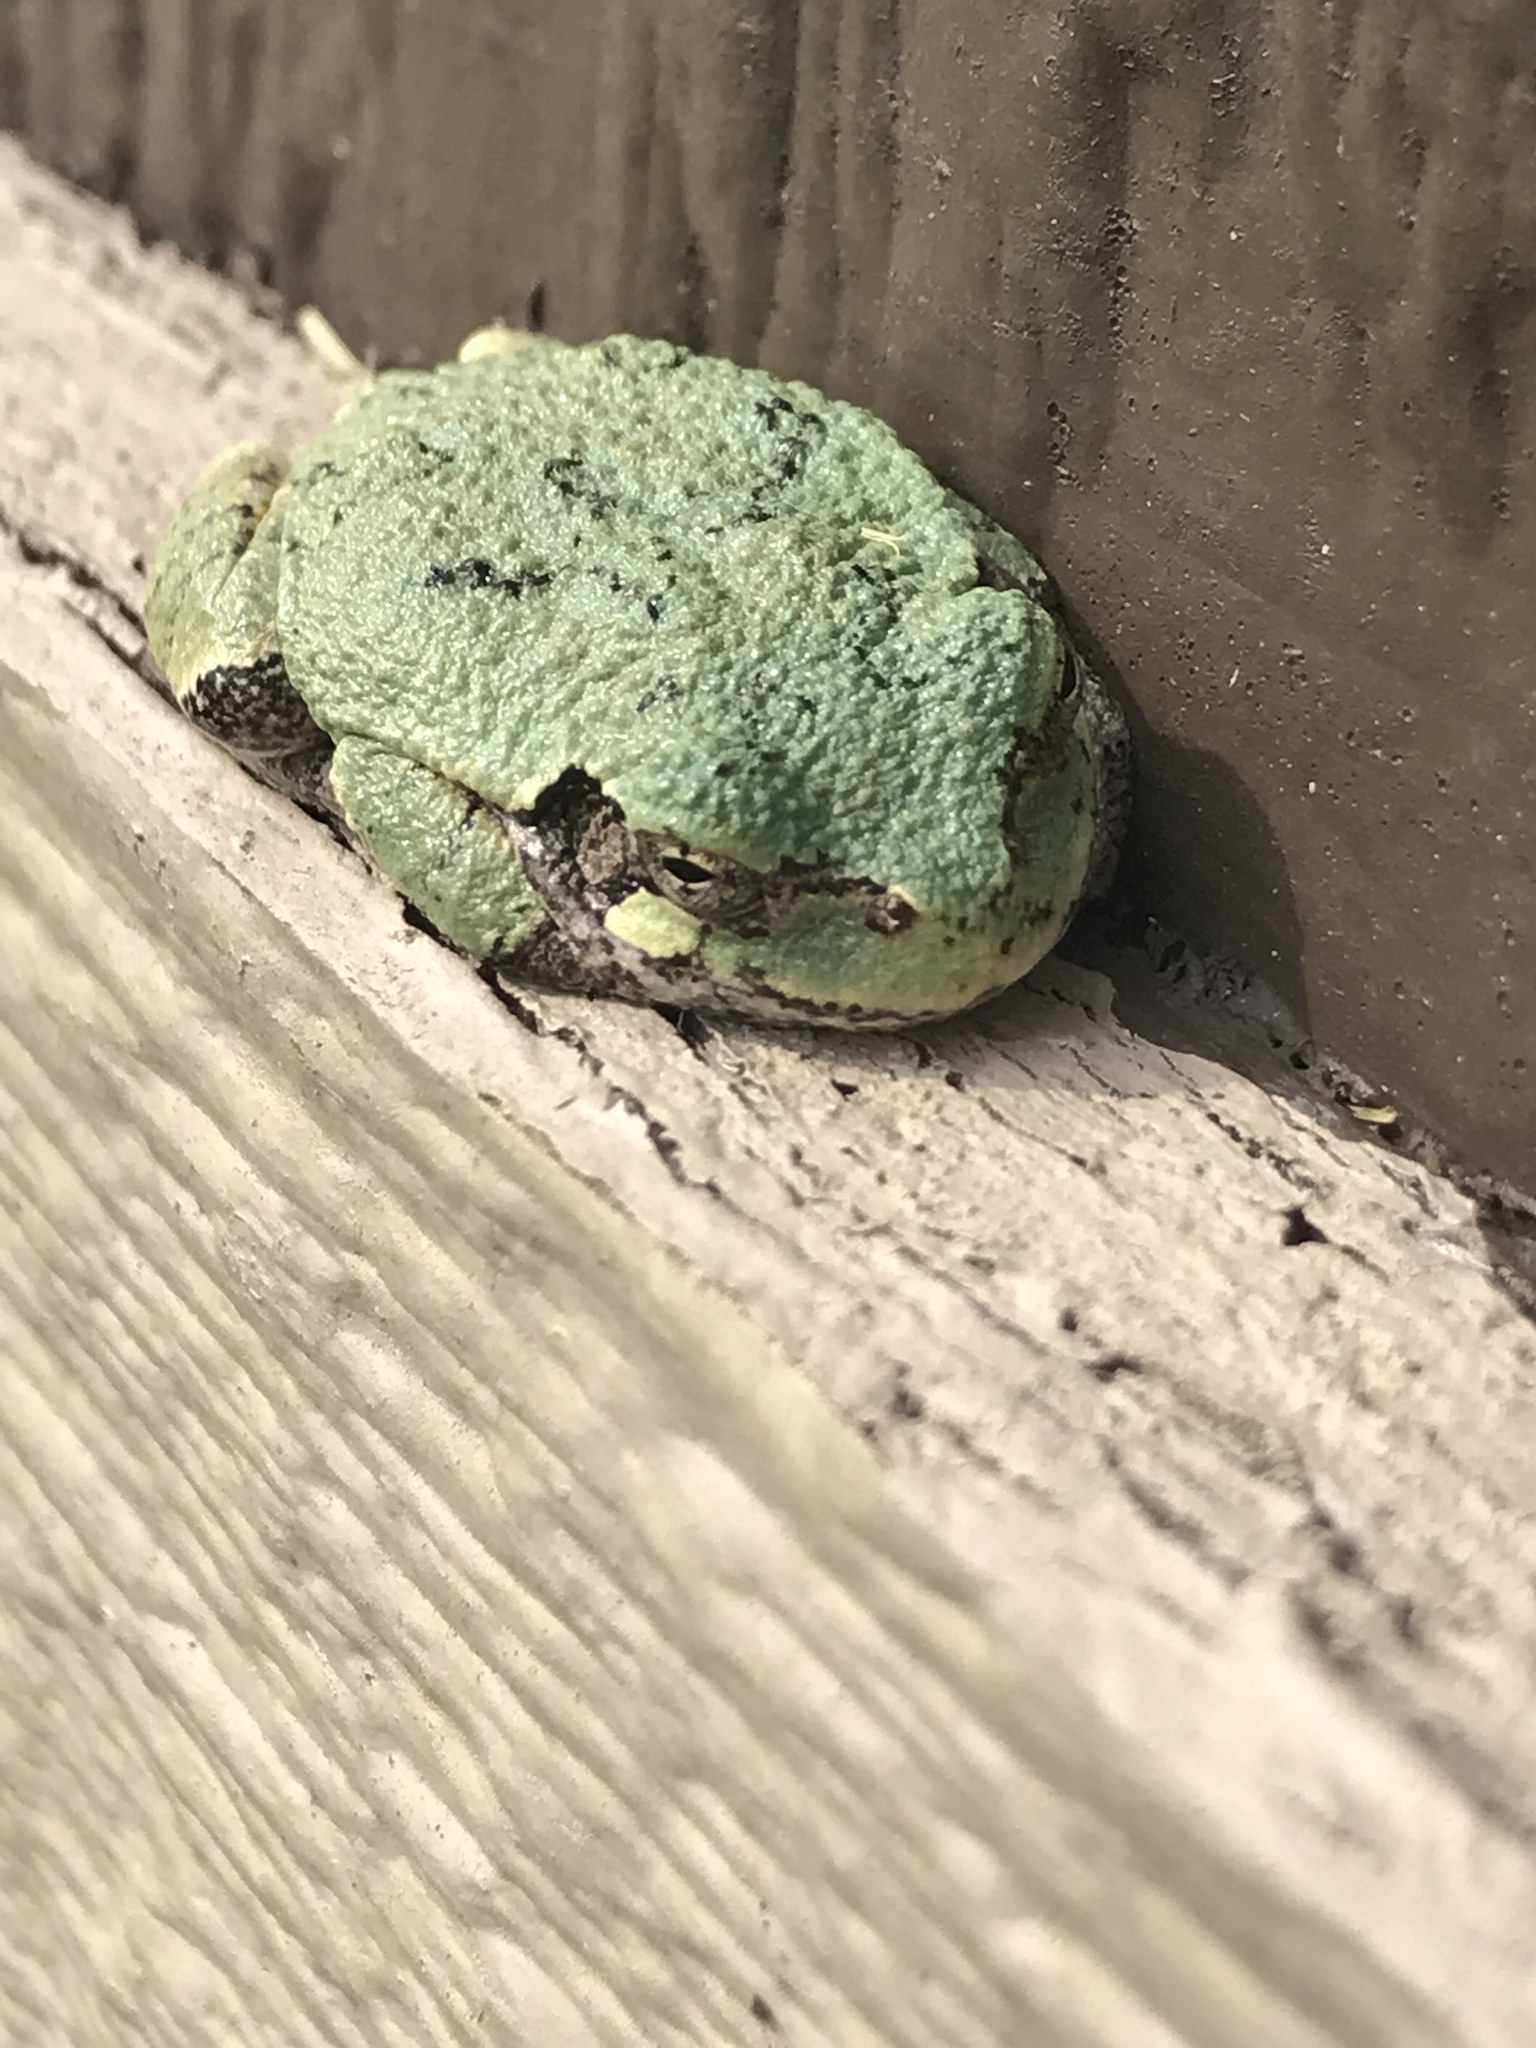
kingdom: Animalia
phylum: Chordata
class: Amphibia
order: Anura
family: Hylidae
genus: Dryophytes
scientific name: Dryophytes versicolor
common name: Gray treefrog
